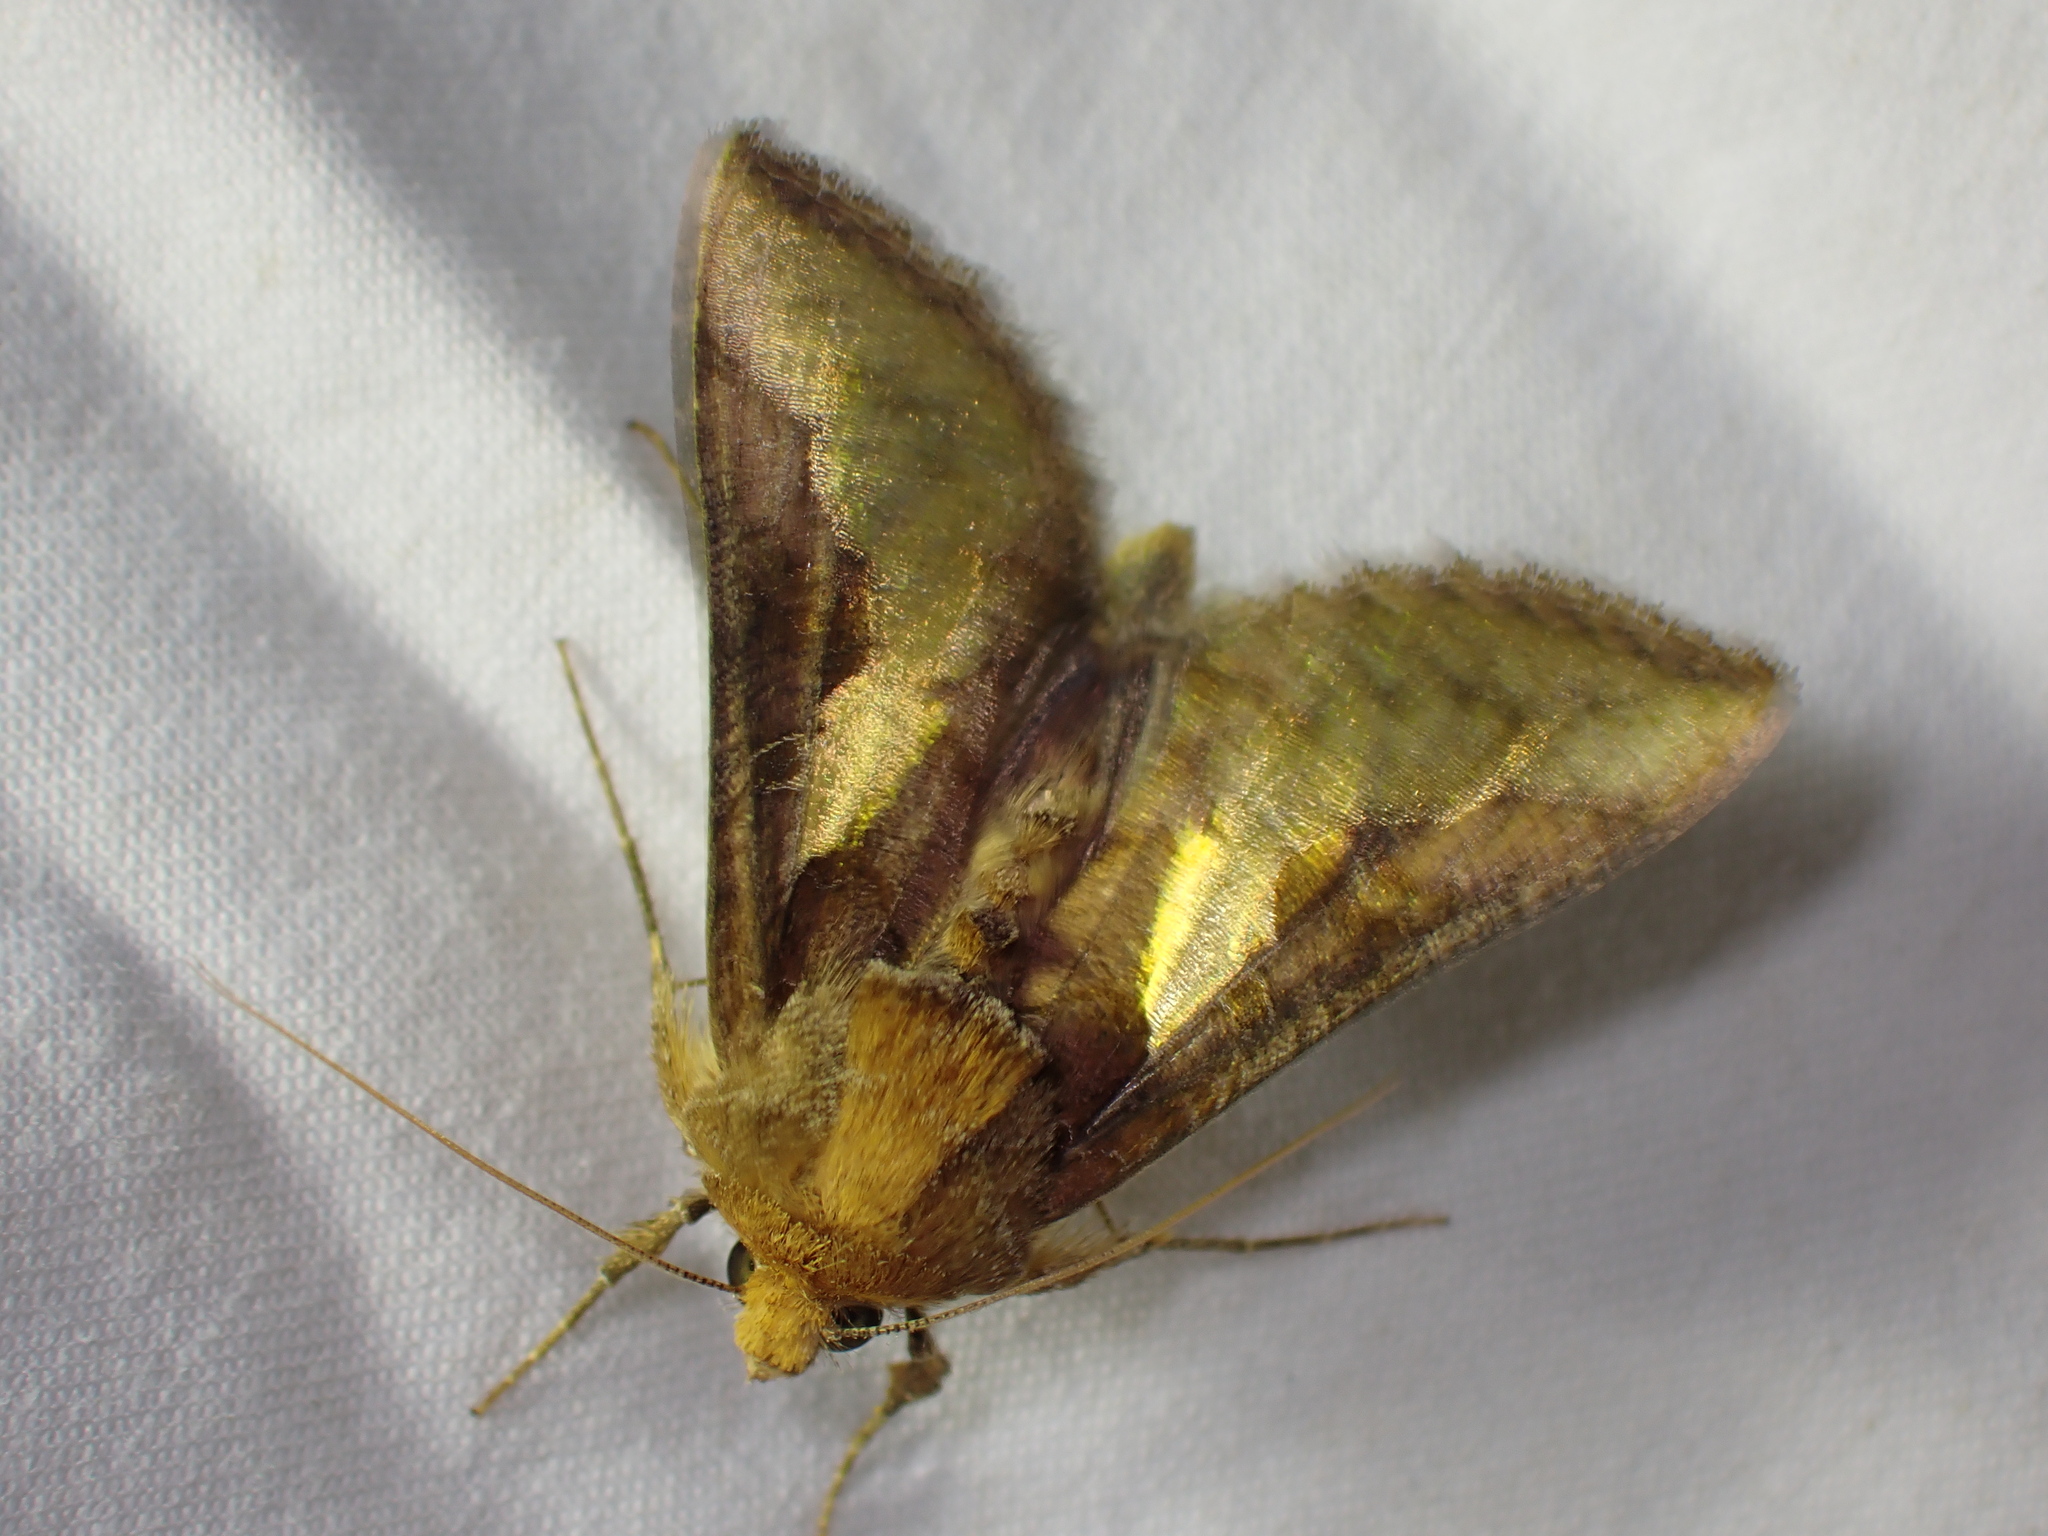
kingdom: Animalia
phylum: Arthropoda
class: Insecta
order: Lepidoptera
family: Noctuidae
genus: Thysanoplusia
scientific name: Thysanoplusia orichalcea
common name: Slender burnished brass, golden plusia
